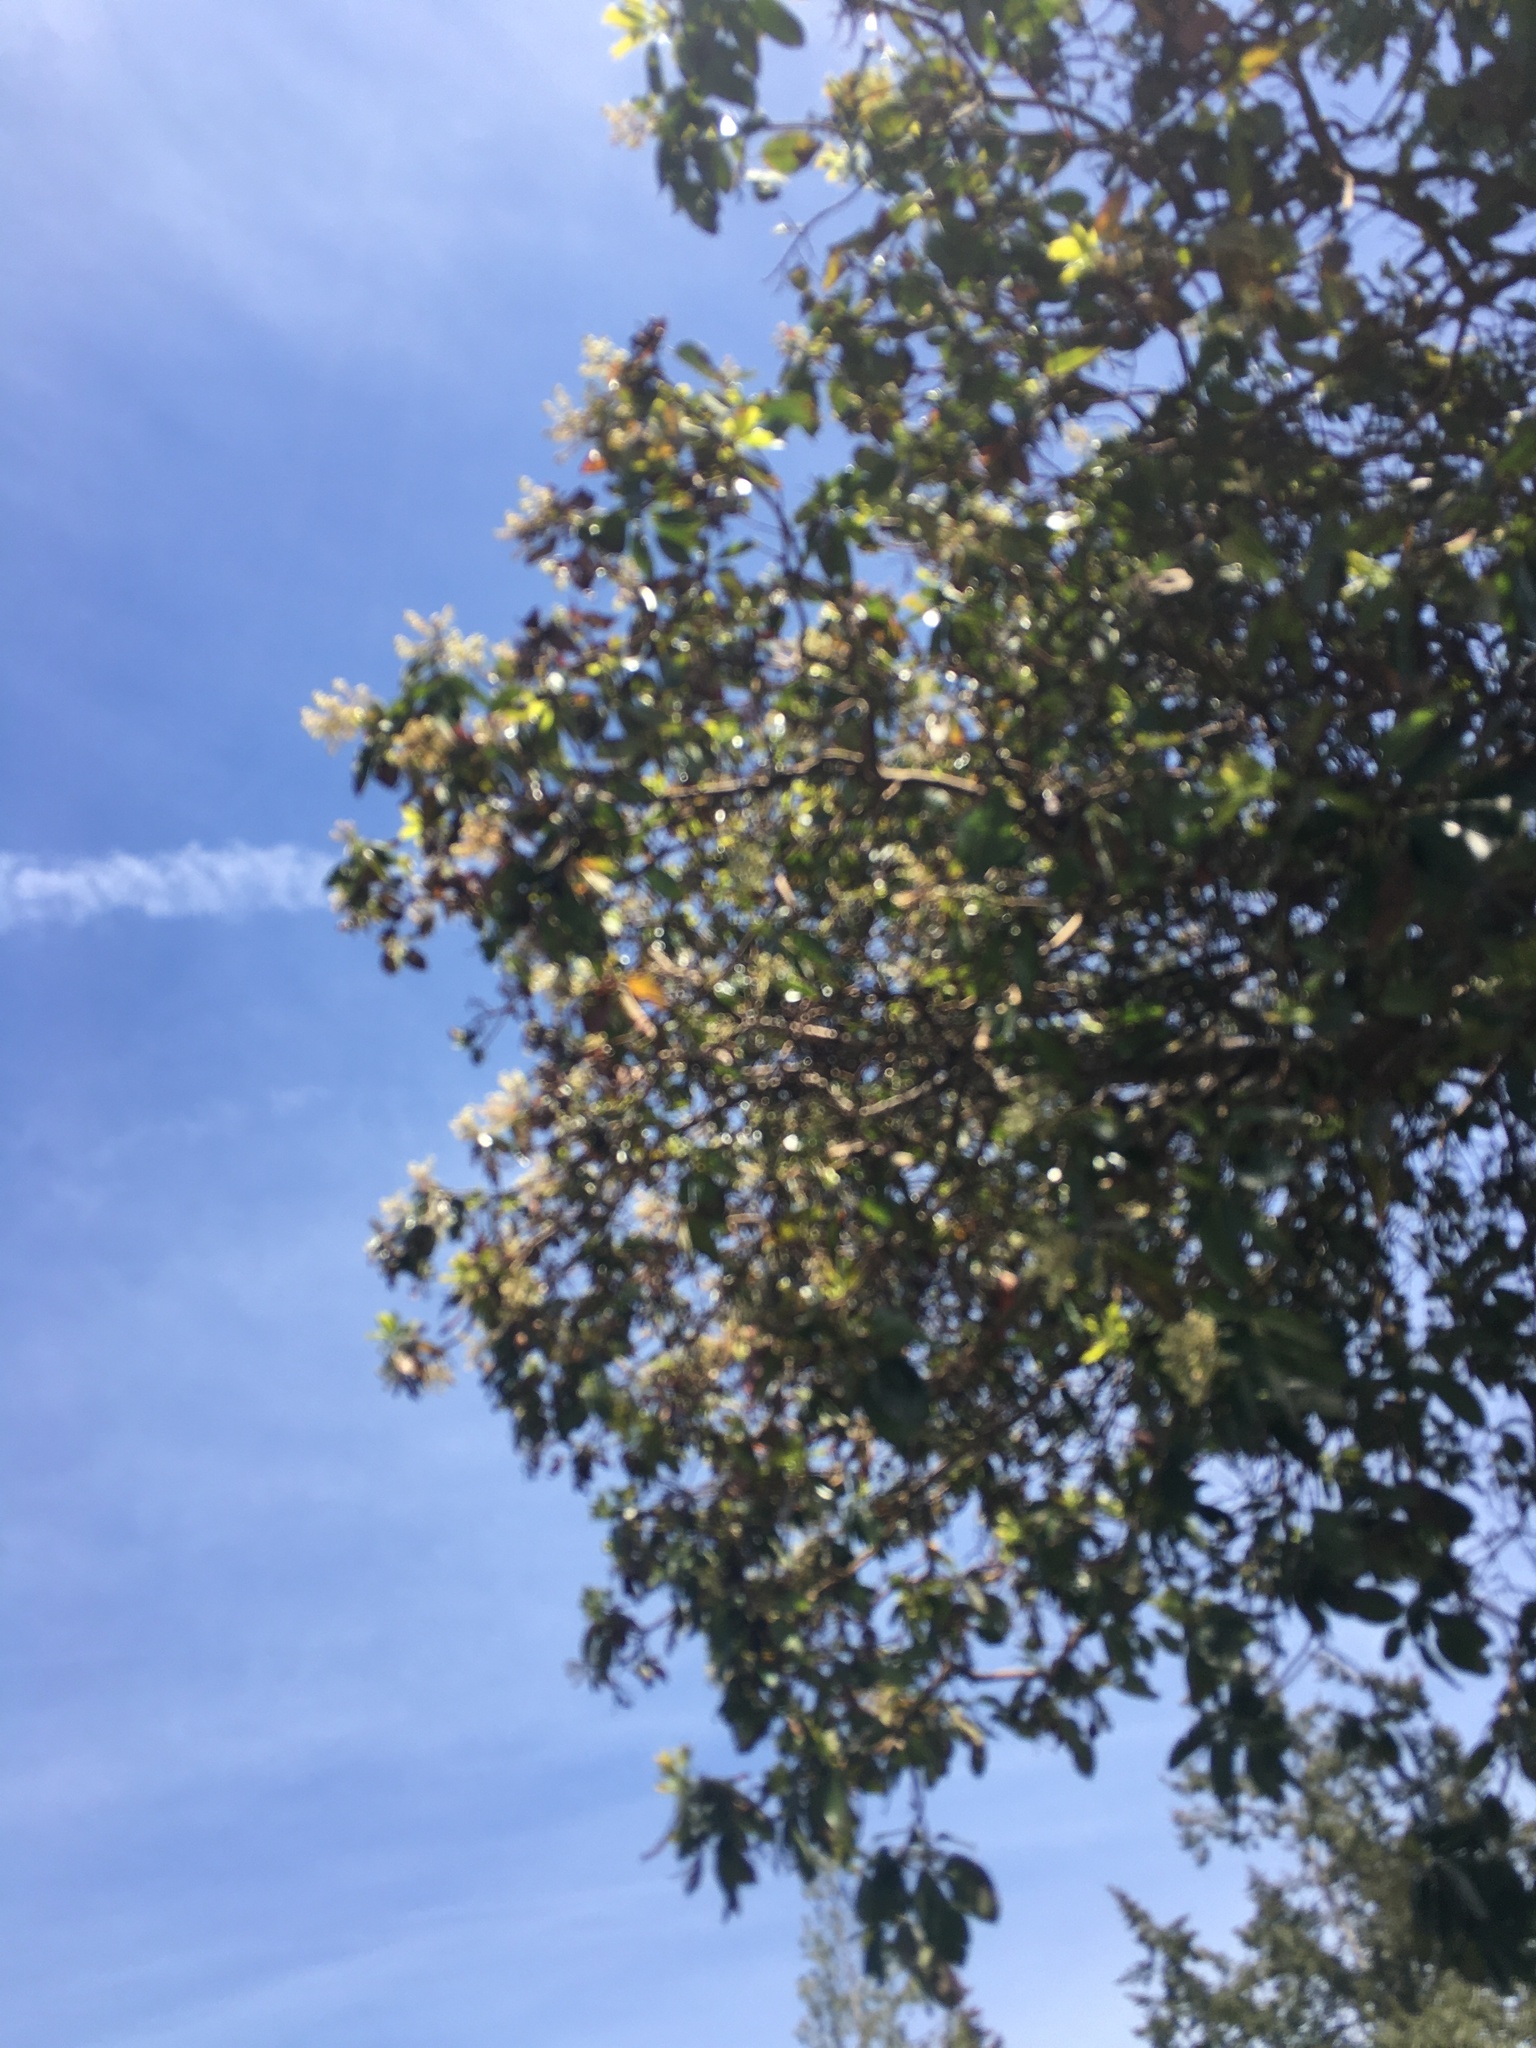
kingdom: Plantae
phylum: Tracheophyta
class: Magnoliopsida
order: Ericales
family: Ericaceae
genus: Arbutus
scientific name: Arbutus menziesii
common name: Pacific madrone
